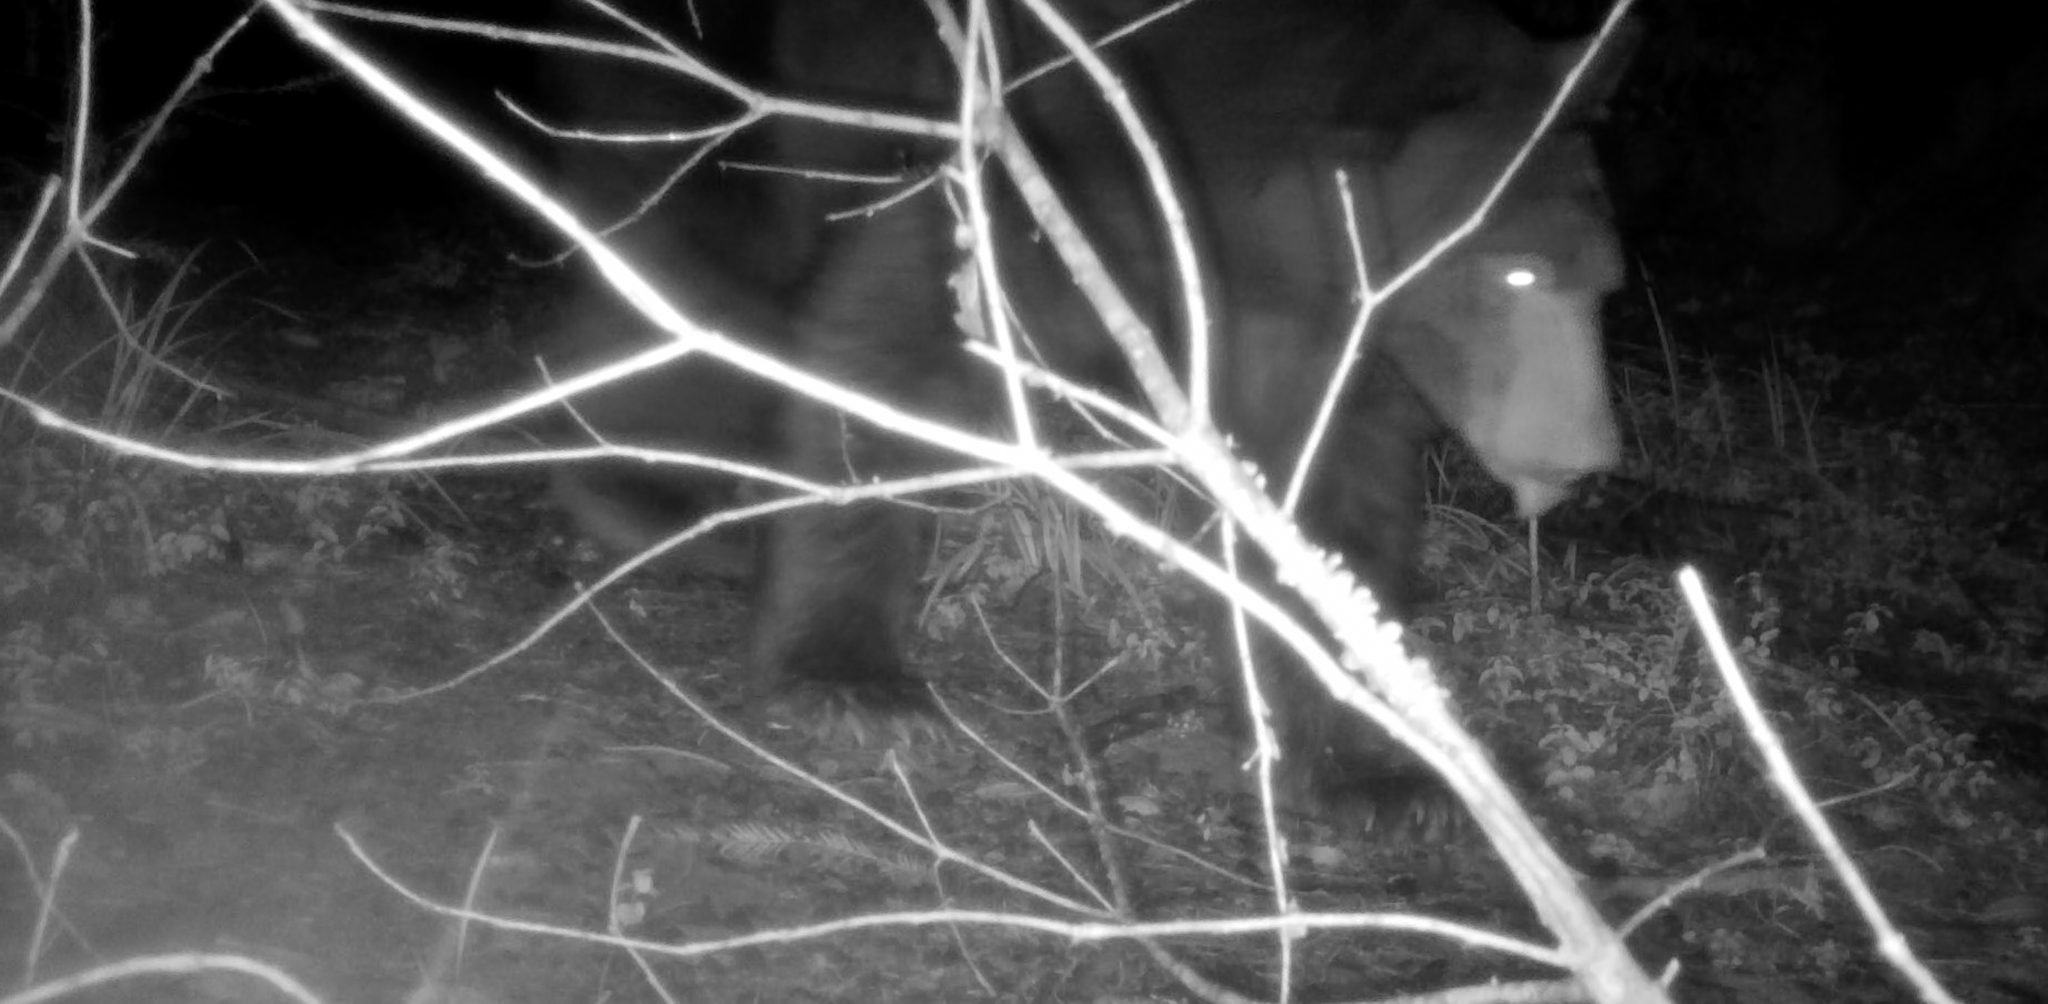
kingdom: Animalia
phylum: Chordata
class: Mammalia
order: Carnivora
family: Ursidae
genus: Ursus
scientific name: Ursus americanus
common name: American black bear
